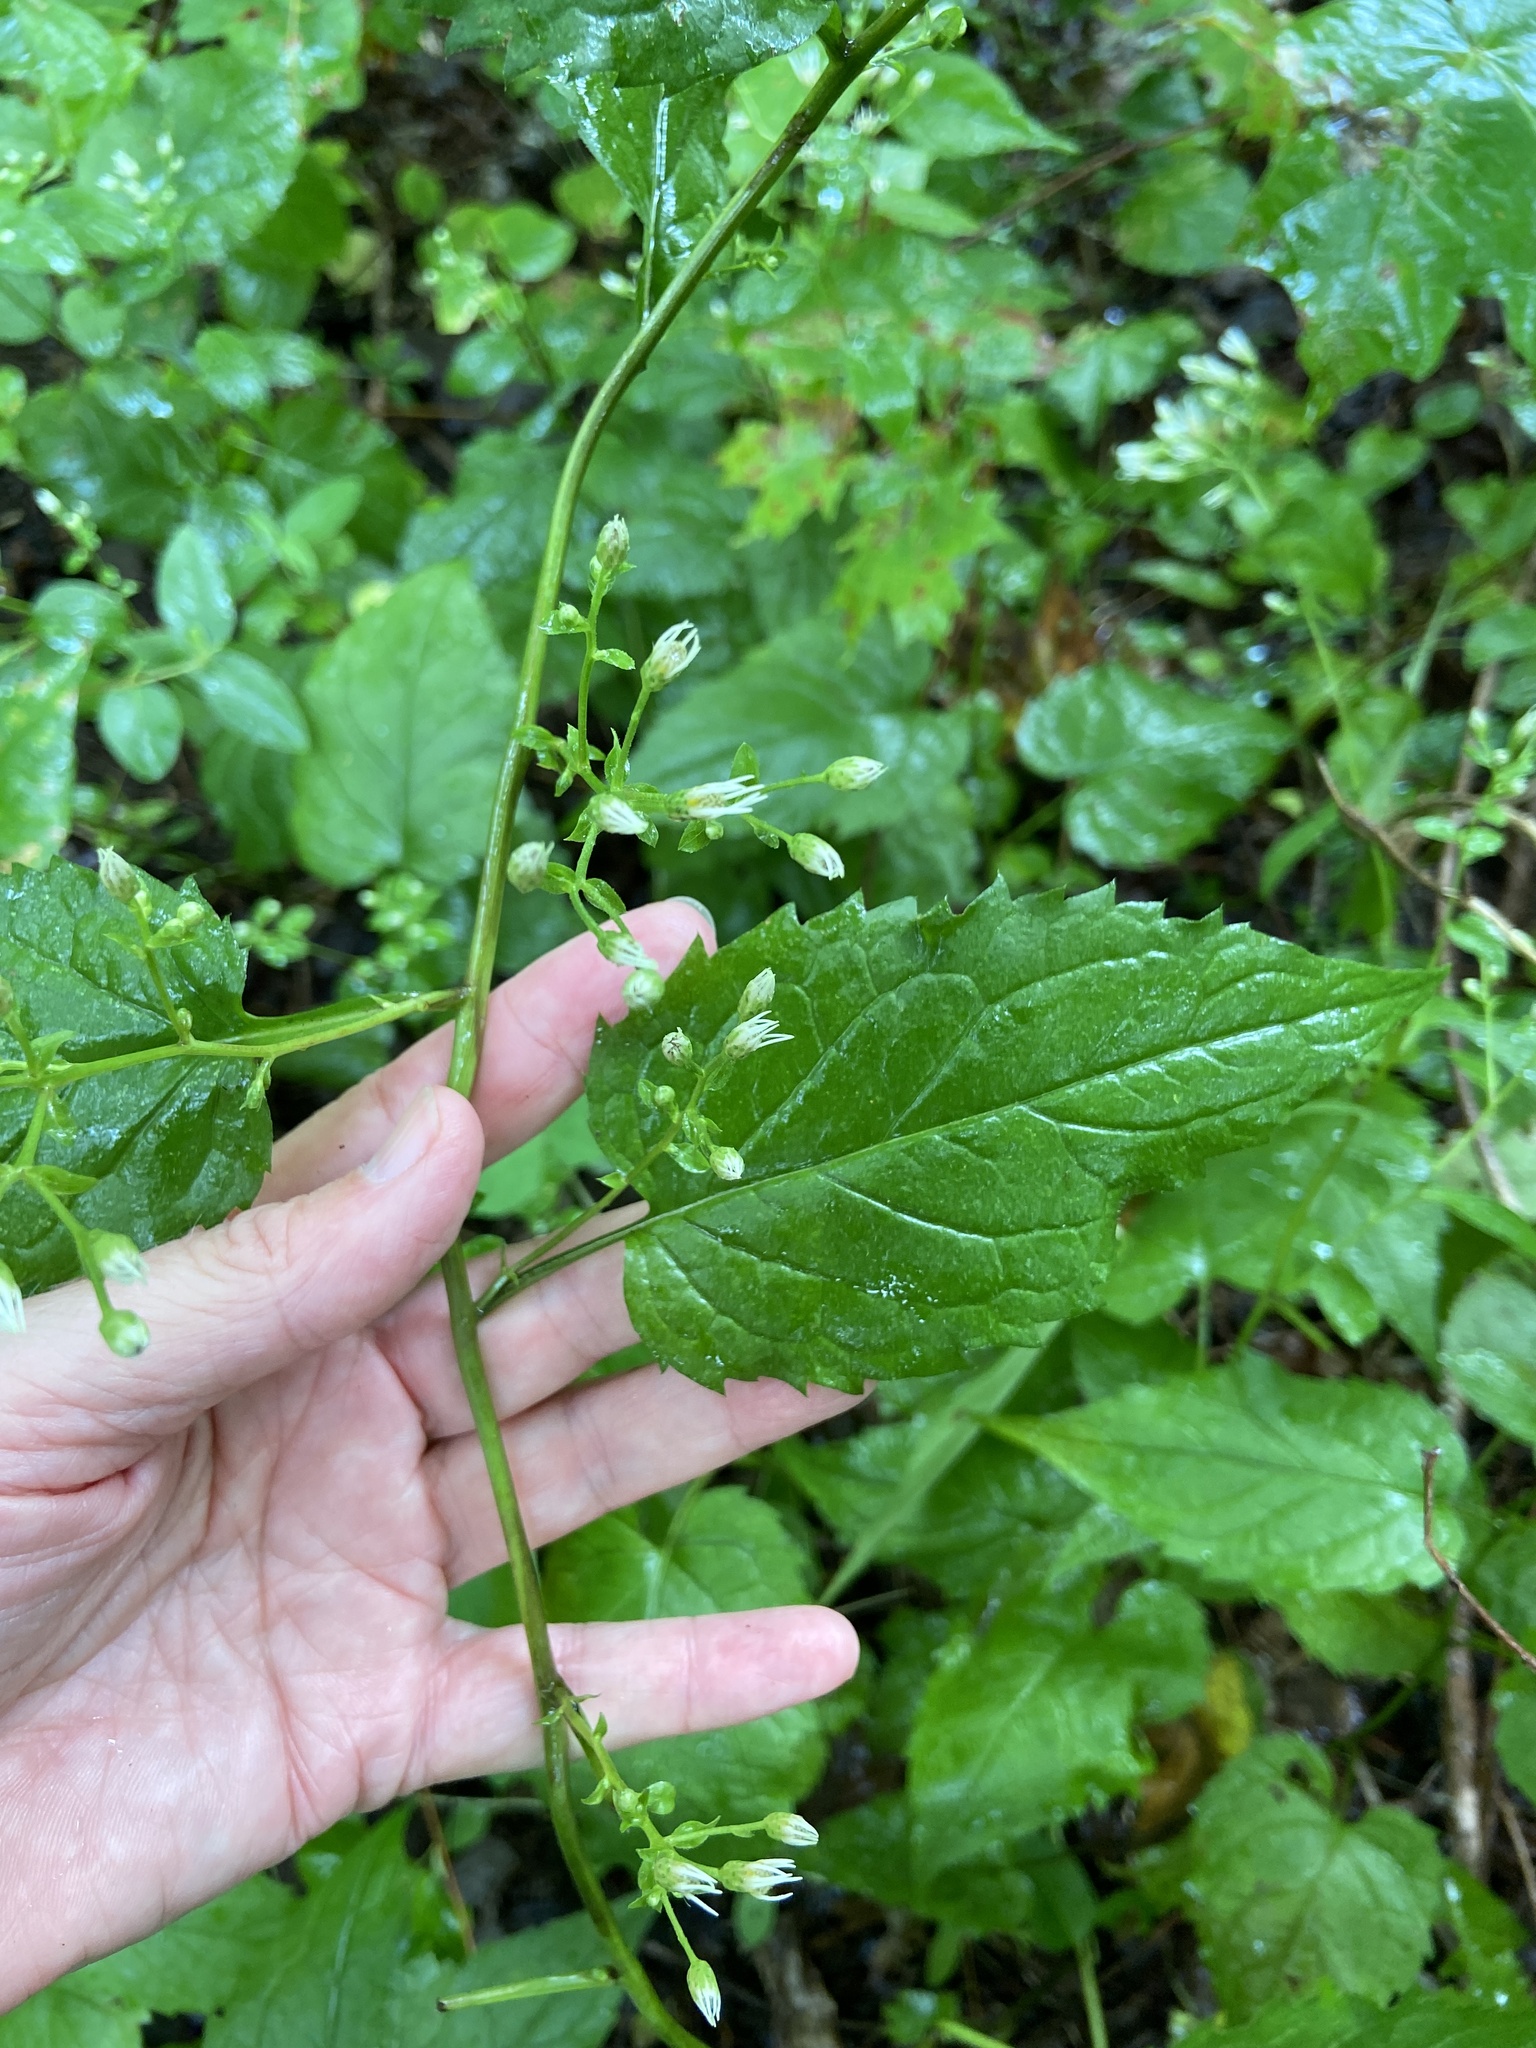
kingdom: Plantae
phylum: Tracheophyta
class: Magnoliopsida
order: Ranunculales
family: Ranunculaceae
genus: Clematis
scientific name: Clematis virginiana
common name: Virgin's-bower
